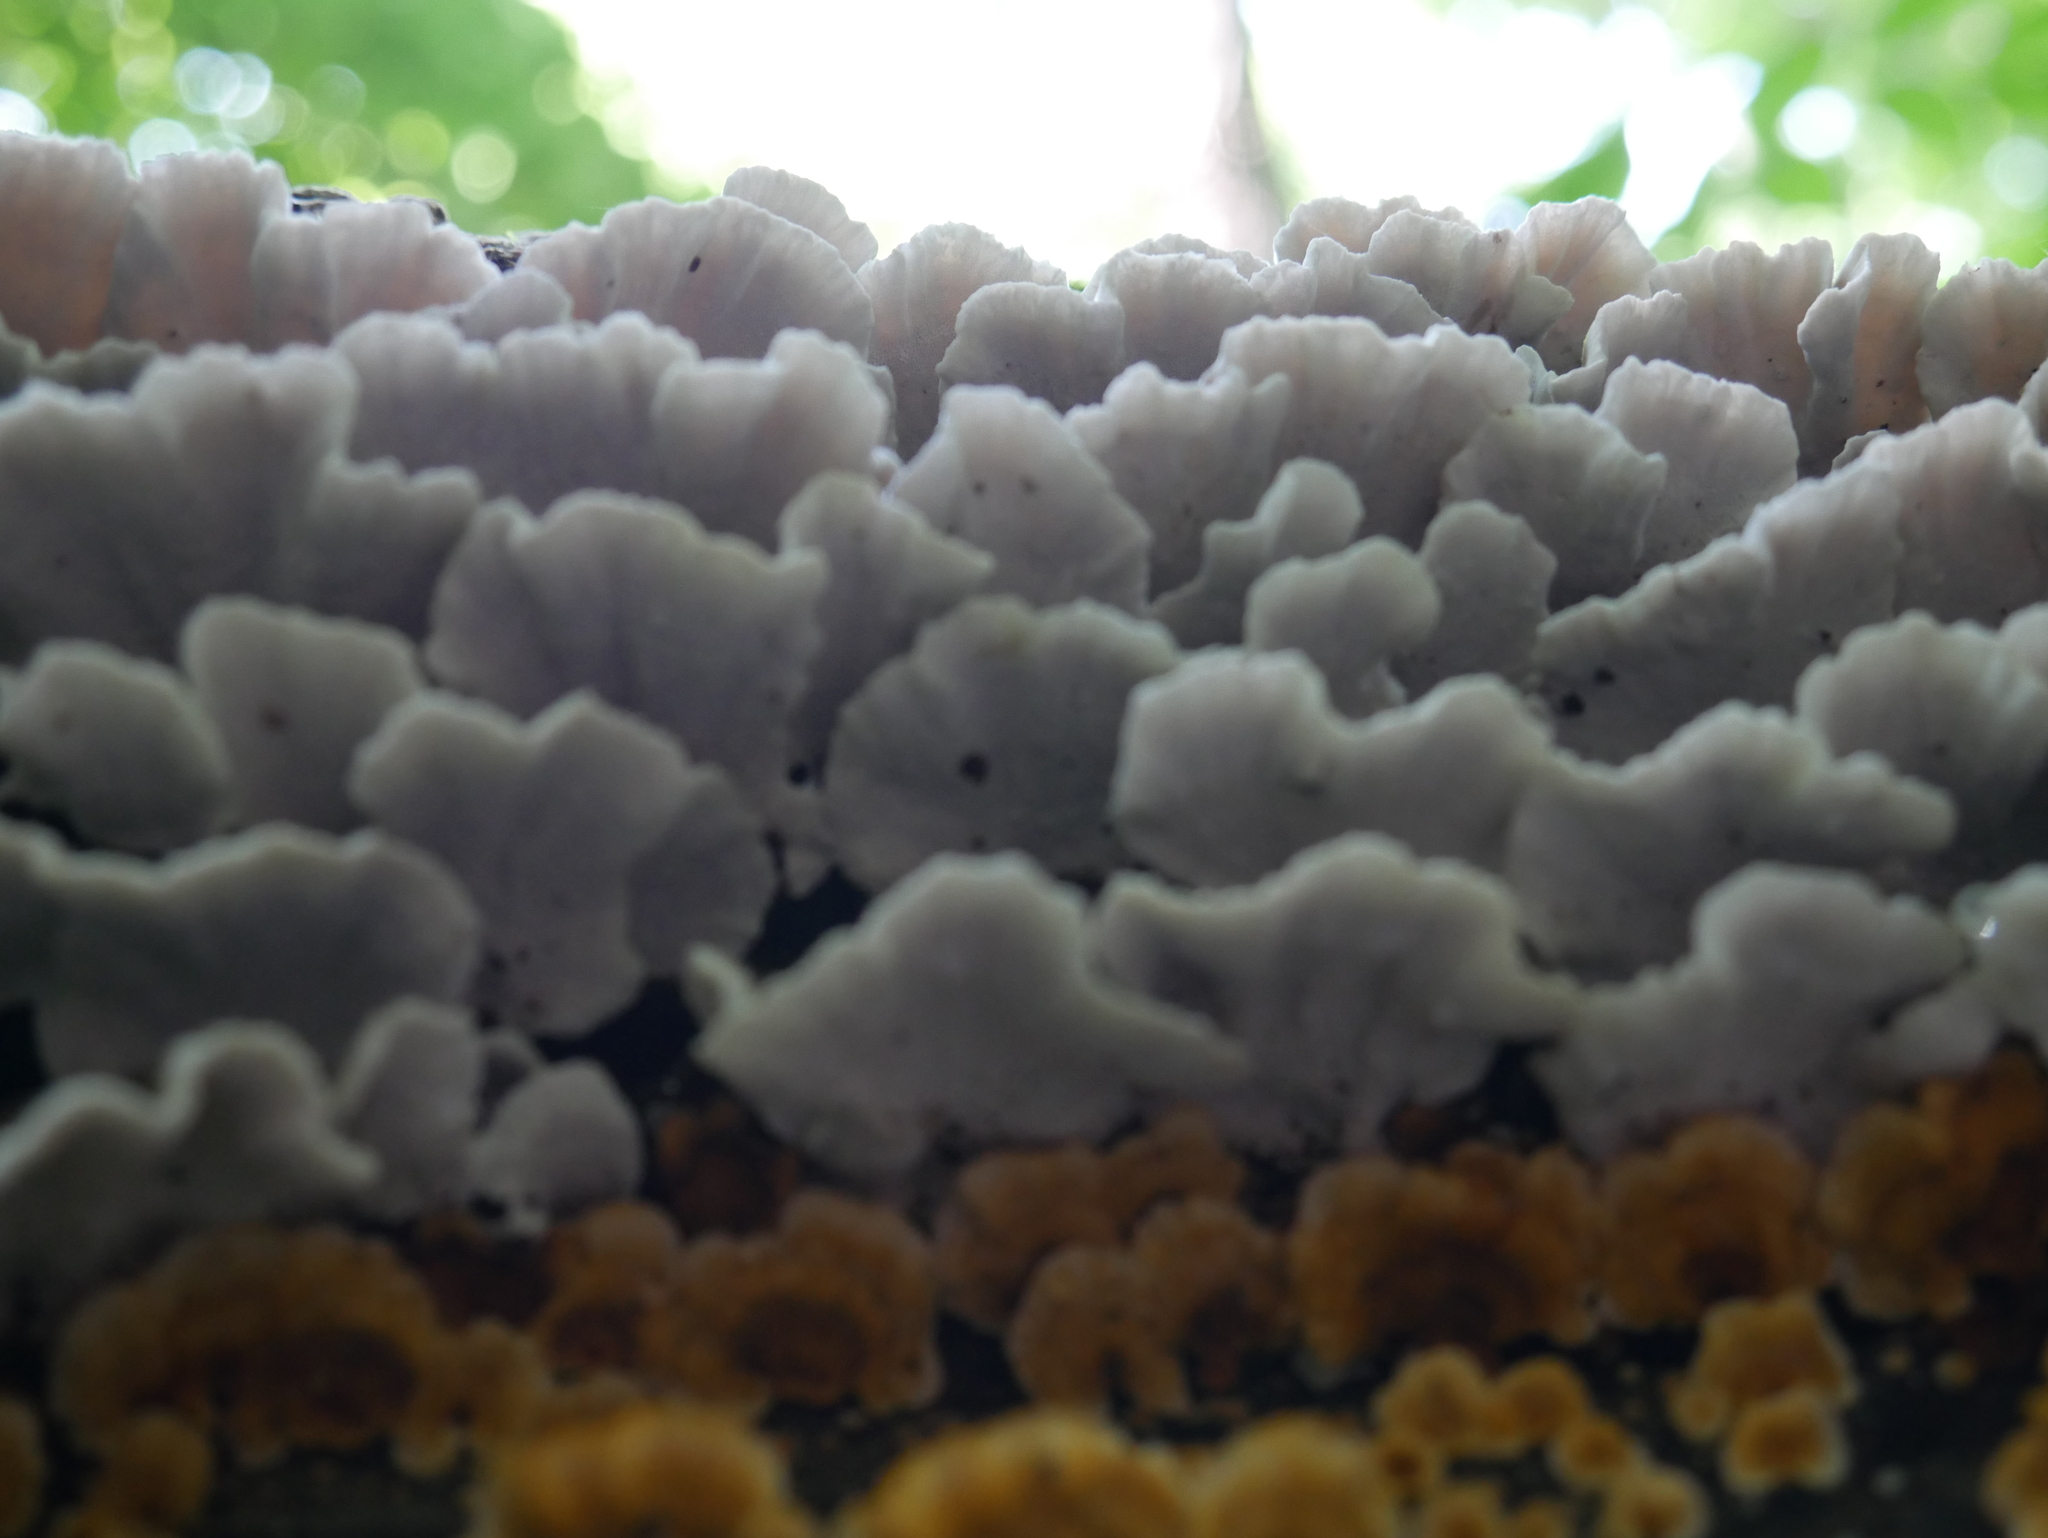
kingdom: Fungi
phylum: Basidiomycota
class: Agaricomycetes
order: Polyporales
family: Polyporaceae
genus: Trametes
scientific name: Trametes versicolor
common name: Turkeytail
